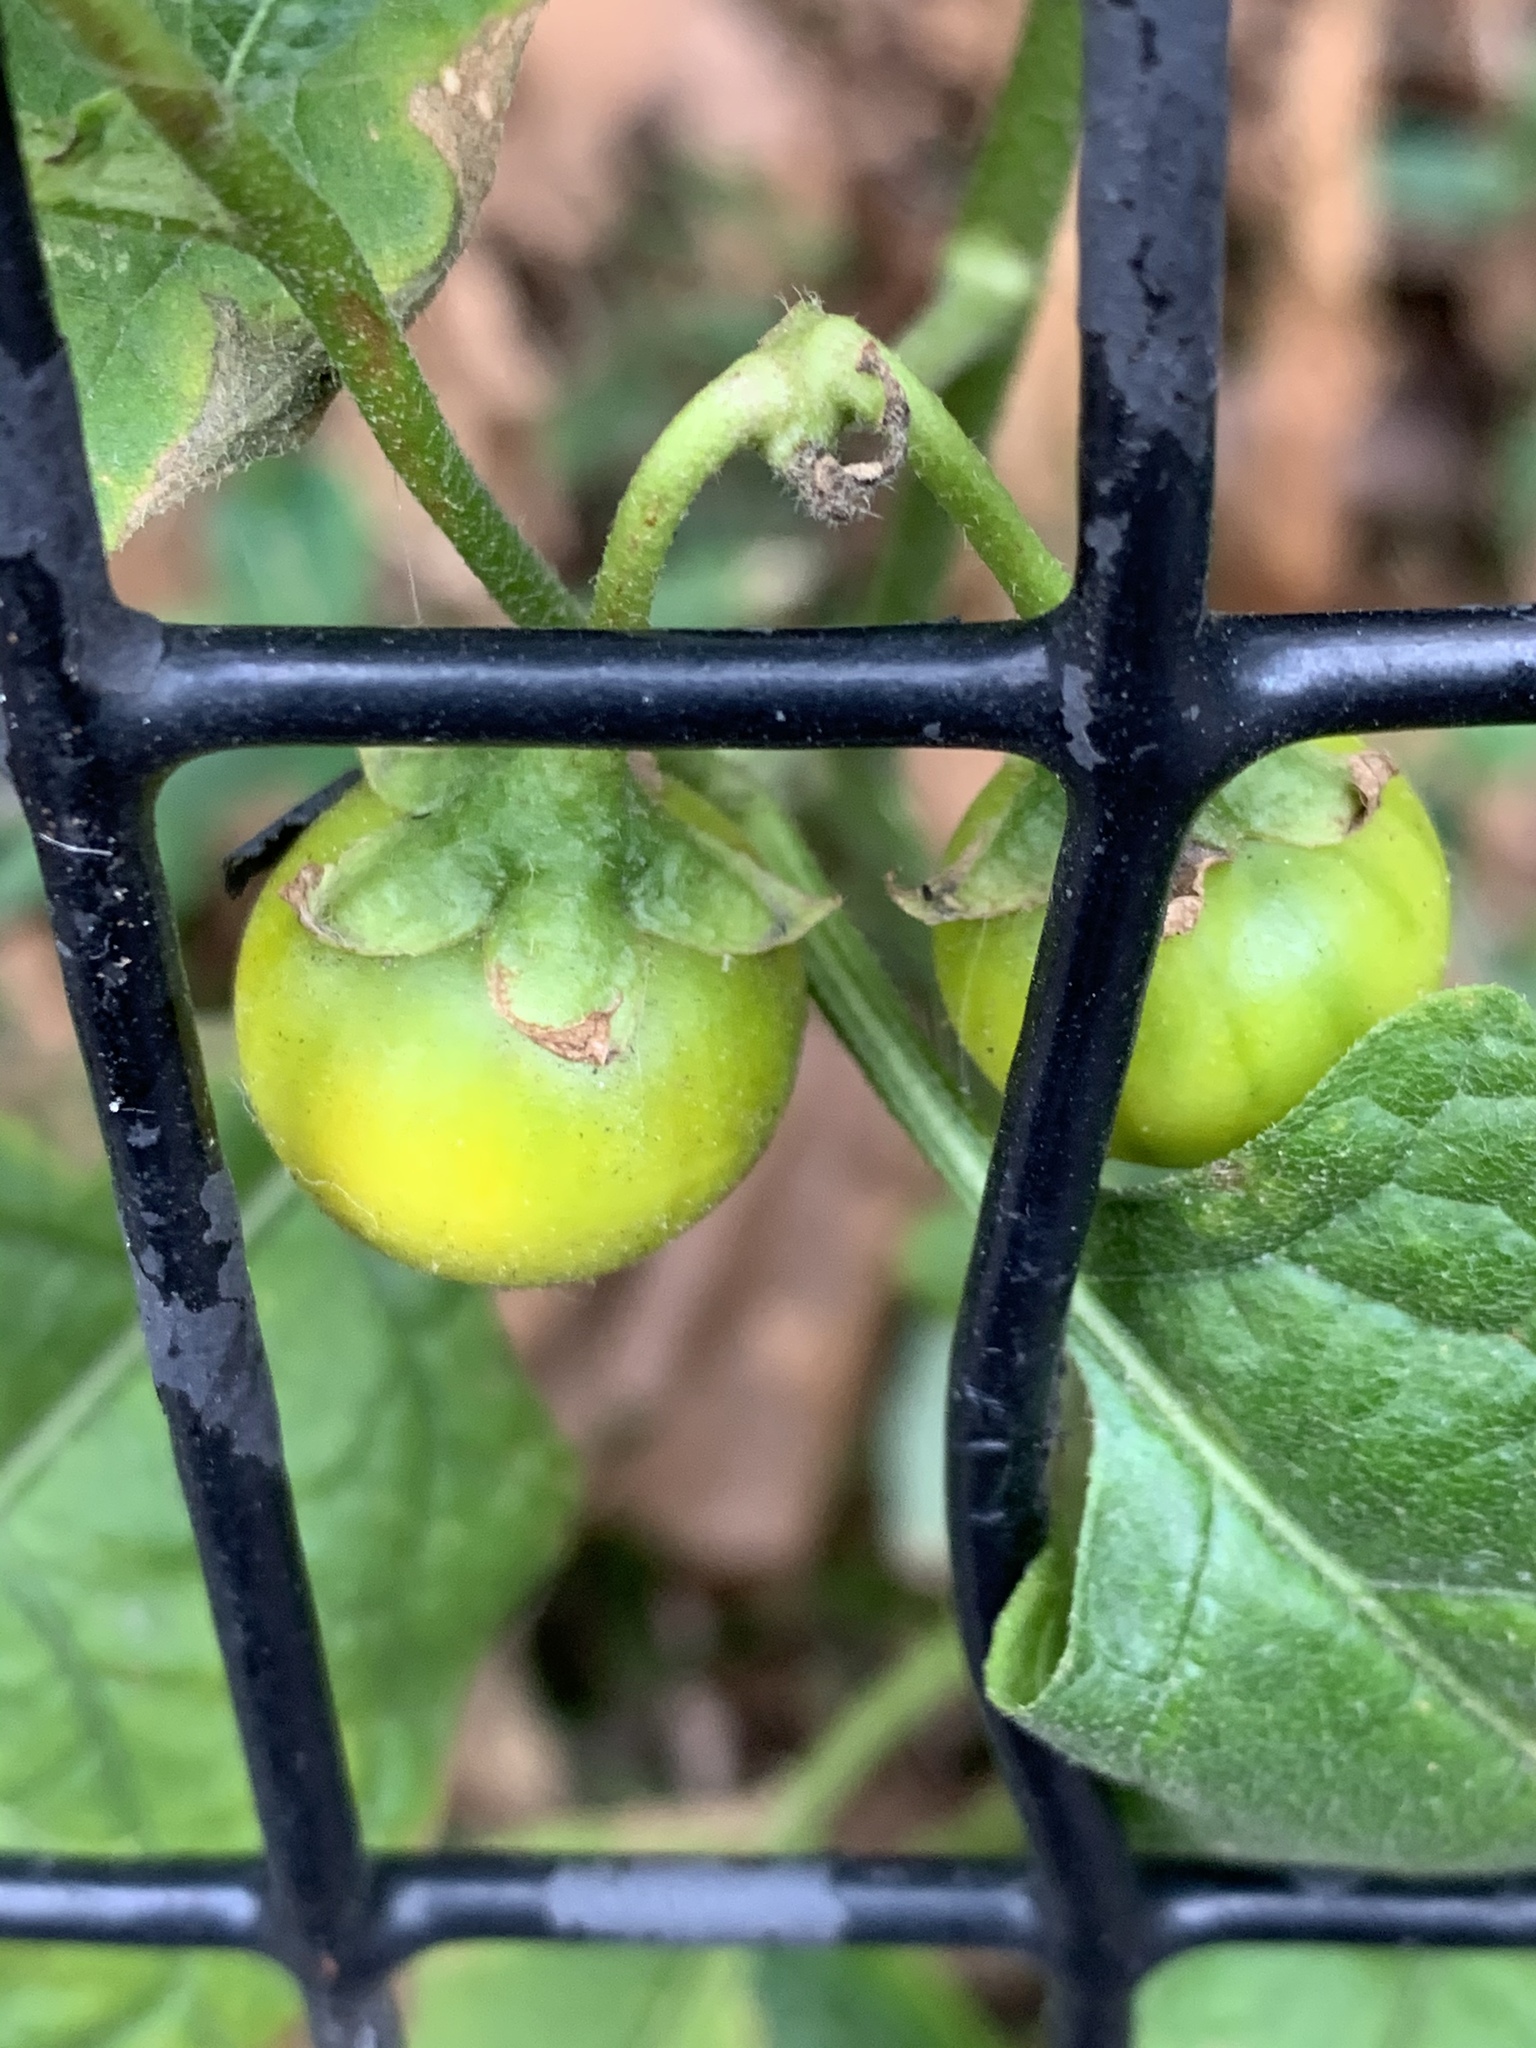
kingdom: Plantae
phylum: Tracheophyta
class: Magnoliopsida
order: Solanales
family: Solanaceae
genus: Solanum
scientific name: Solanum carolinense
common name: Horse-nettle
